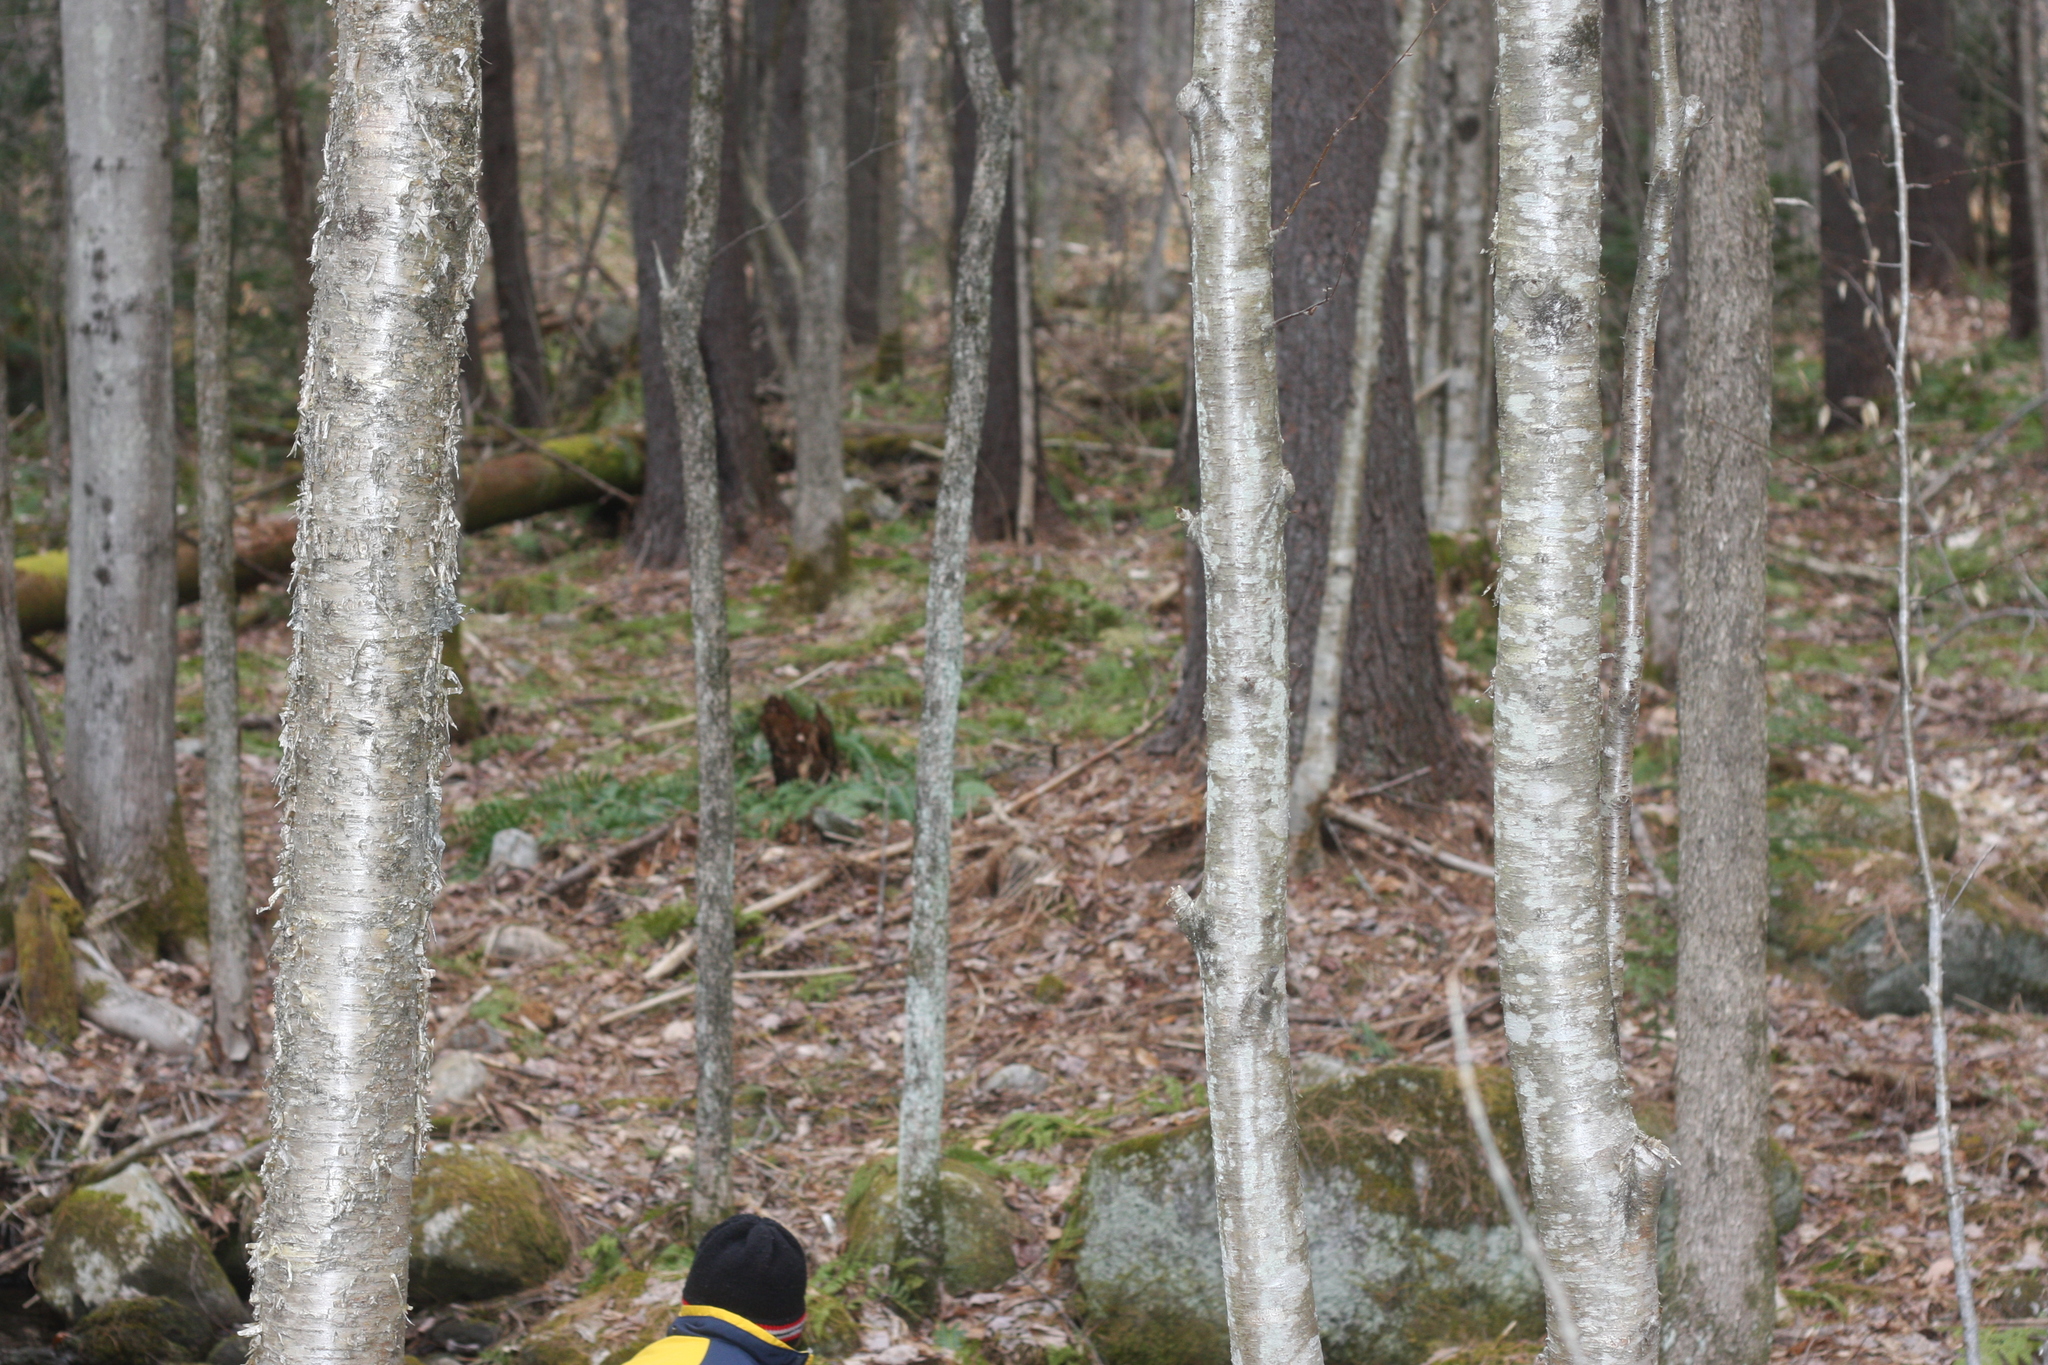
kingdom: Plantae
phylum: Tracheophyta
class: Magnoliopsida
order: Fagales
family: Betulaceae
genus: Betula
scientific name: Betula alleghaniensis
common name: Yellow birch
